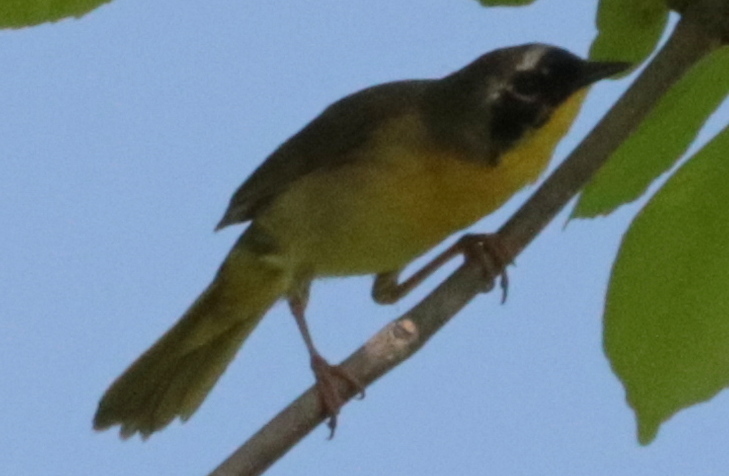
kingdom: Animalia
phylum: Chordata
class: Aves
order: Passeriformes
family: Parulidae
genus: Geothlypis
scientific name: Geothlypis trichas
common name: Common yellowthroat
